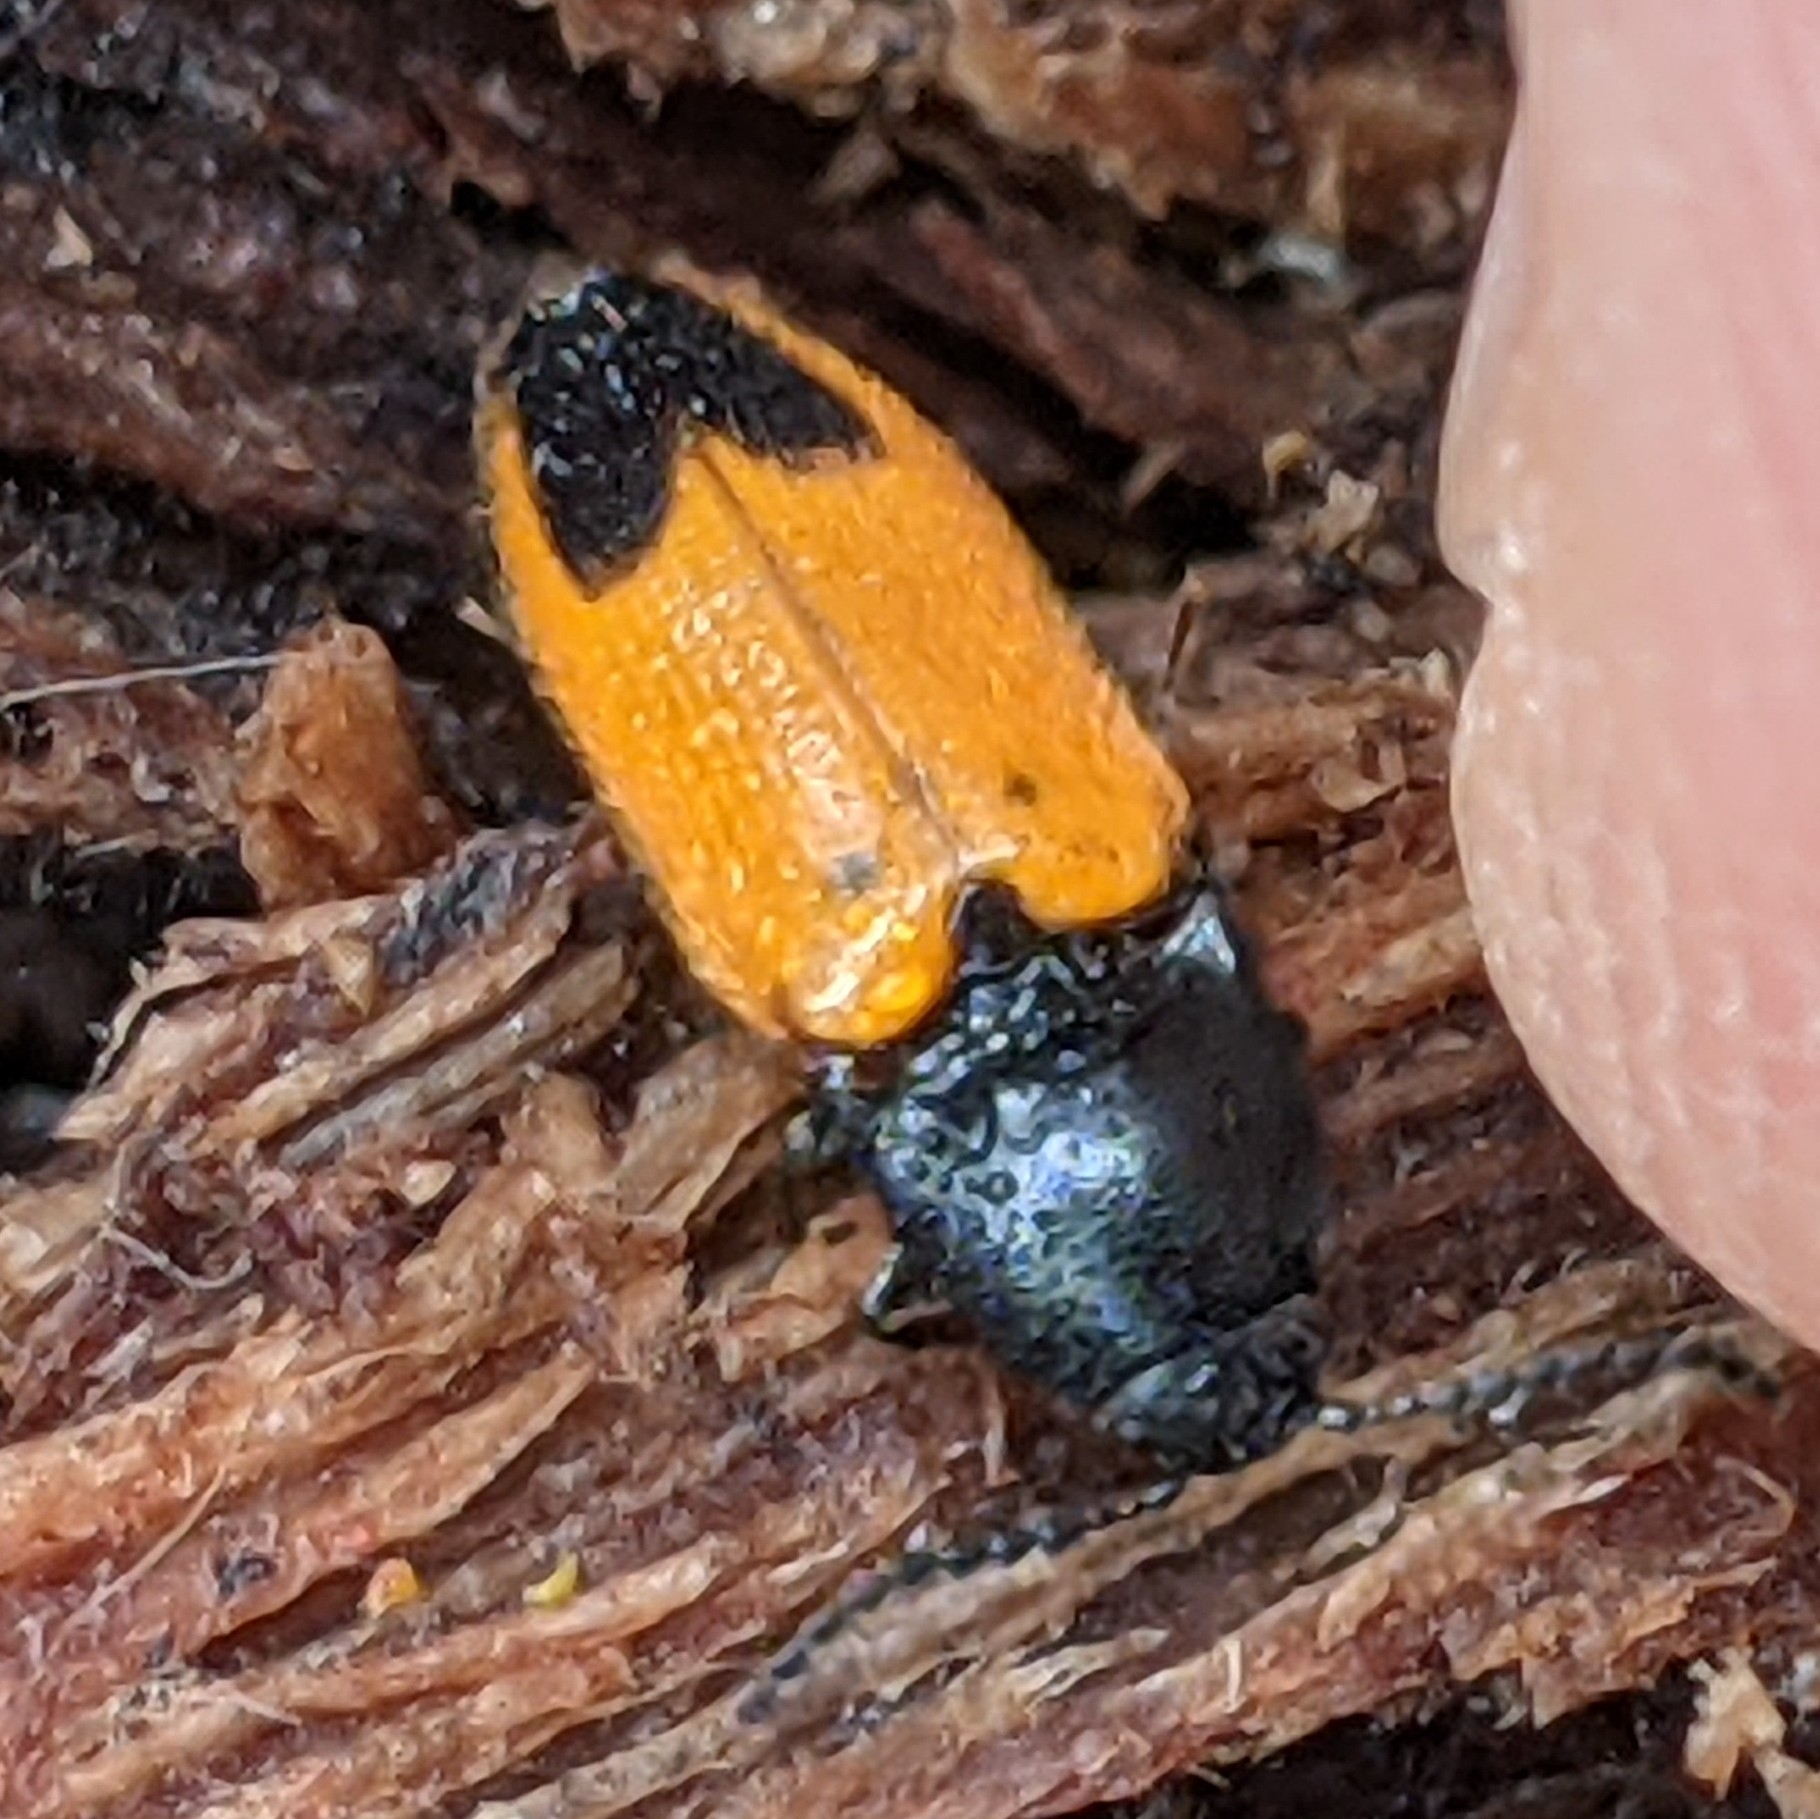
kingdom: Animalia
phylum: Arthropoda
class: Insecta
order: Coleoptera
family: Elateridae
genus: Ampedus
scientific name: Ampedus
